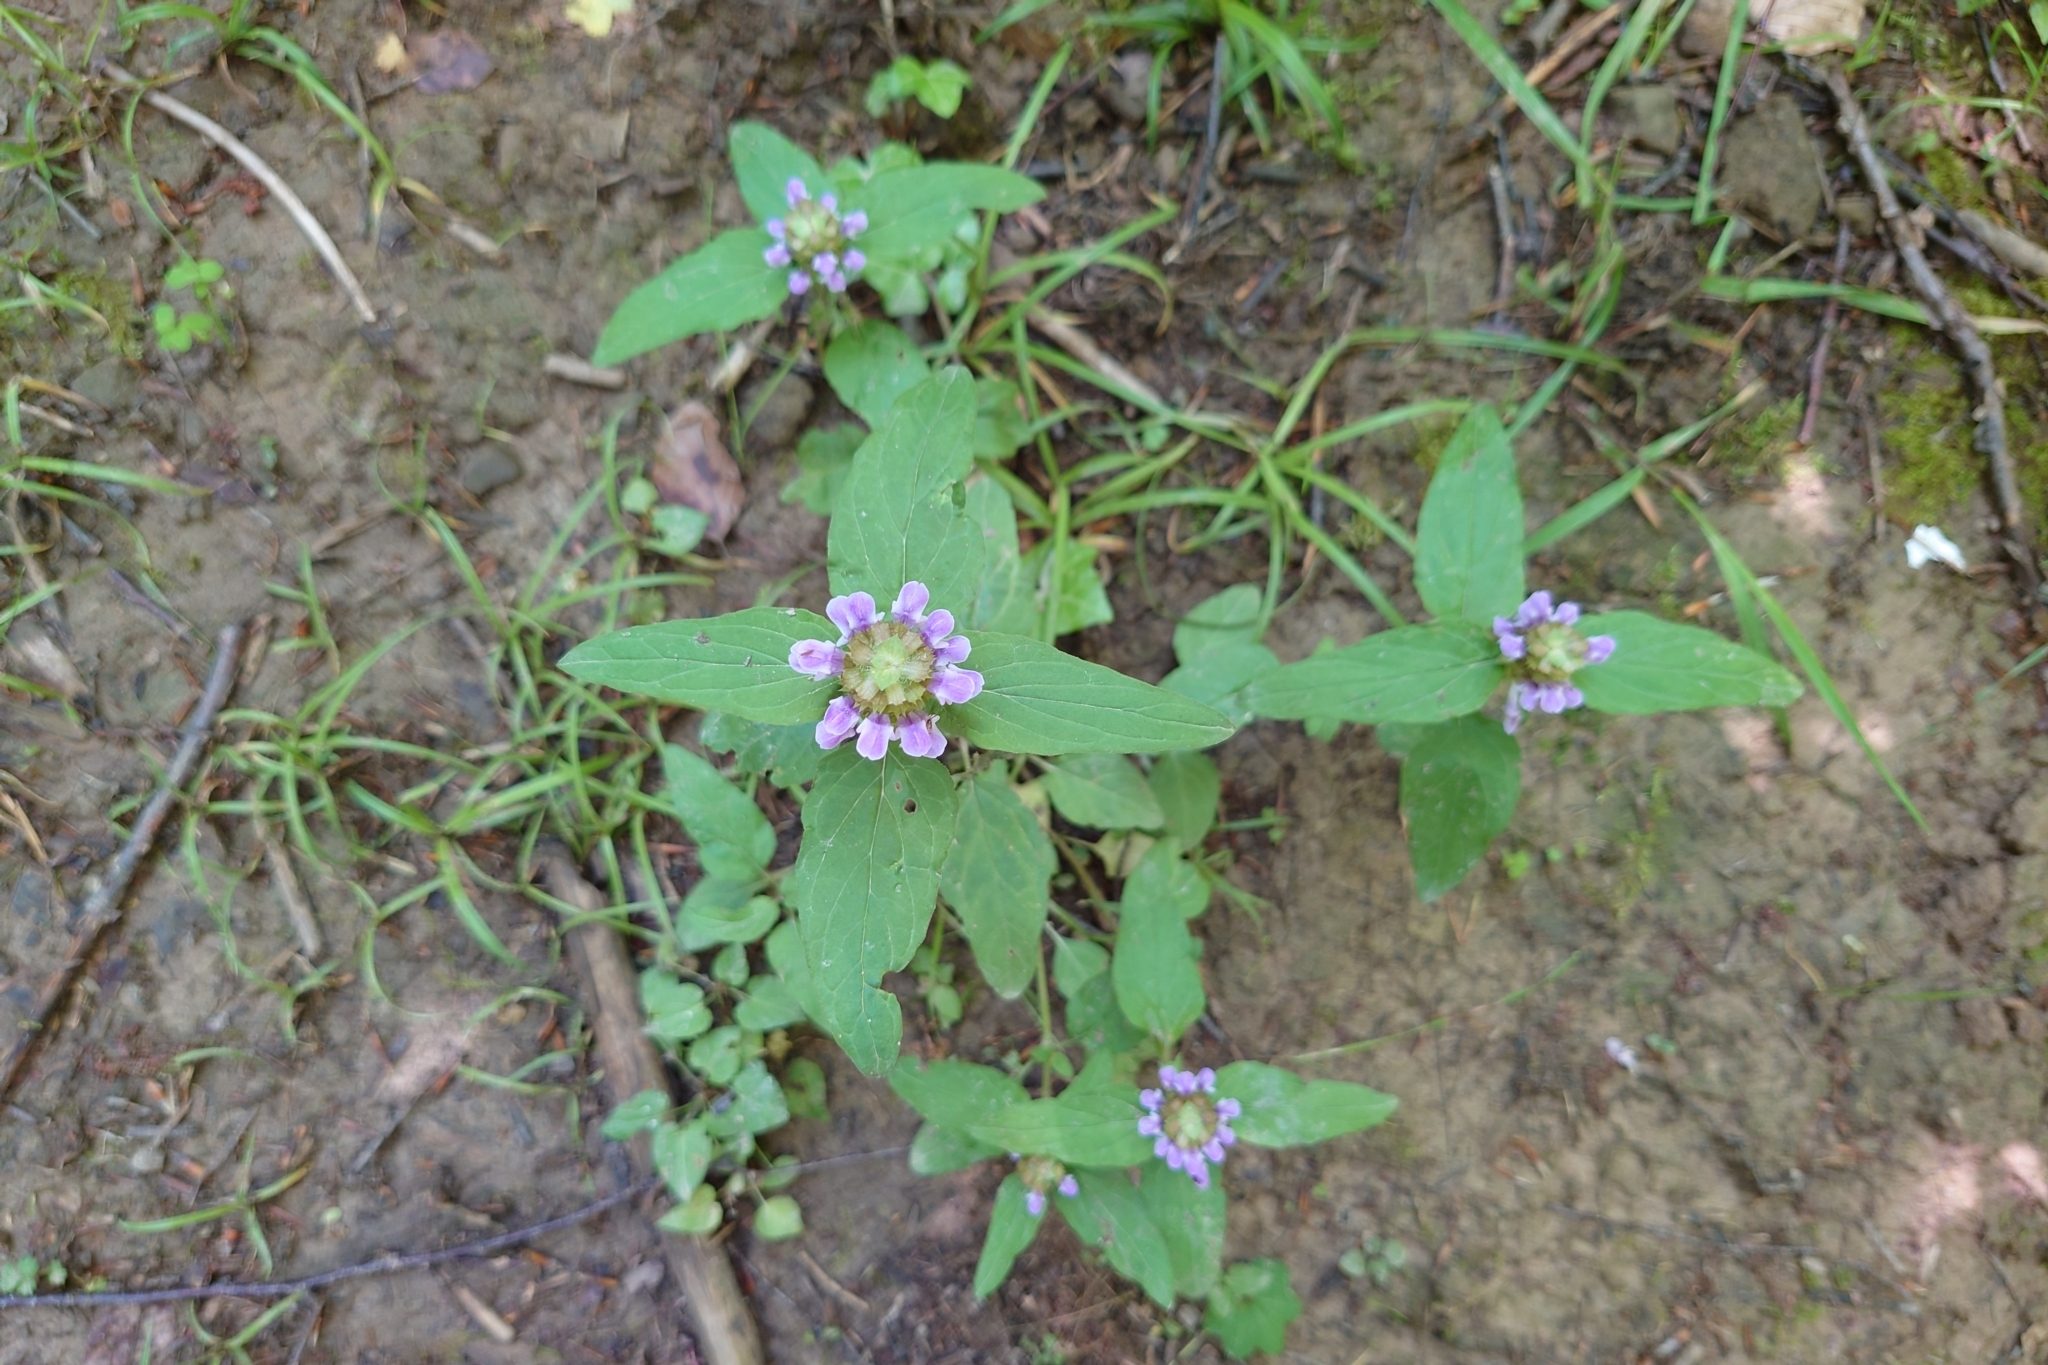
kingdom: Plantae
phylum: Tracheophyta
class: Magnoliopsida
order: Lamiales
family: Lamiaceae
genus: Prunella
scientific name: Prunella vulgaris
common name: Heal-all
